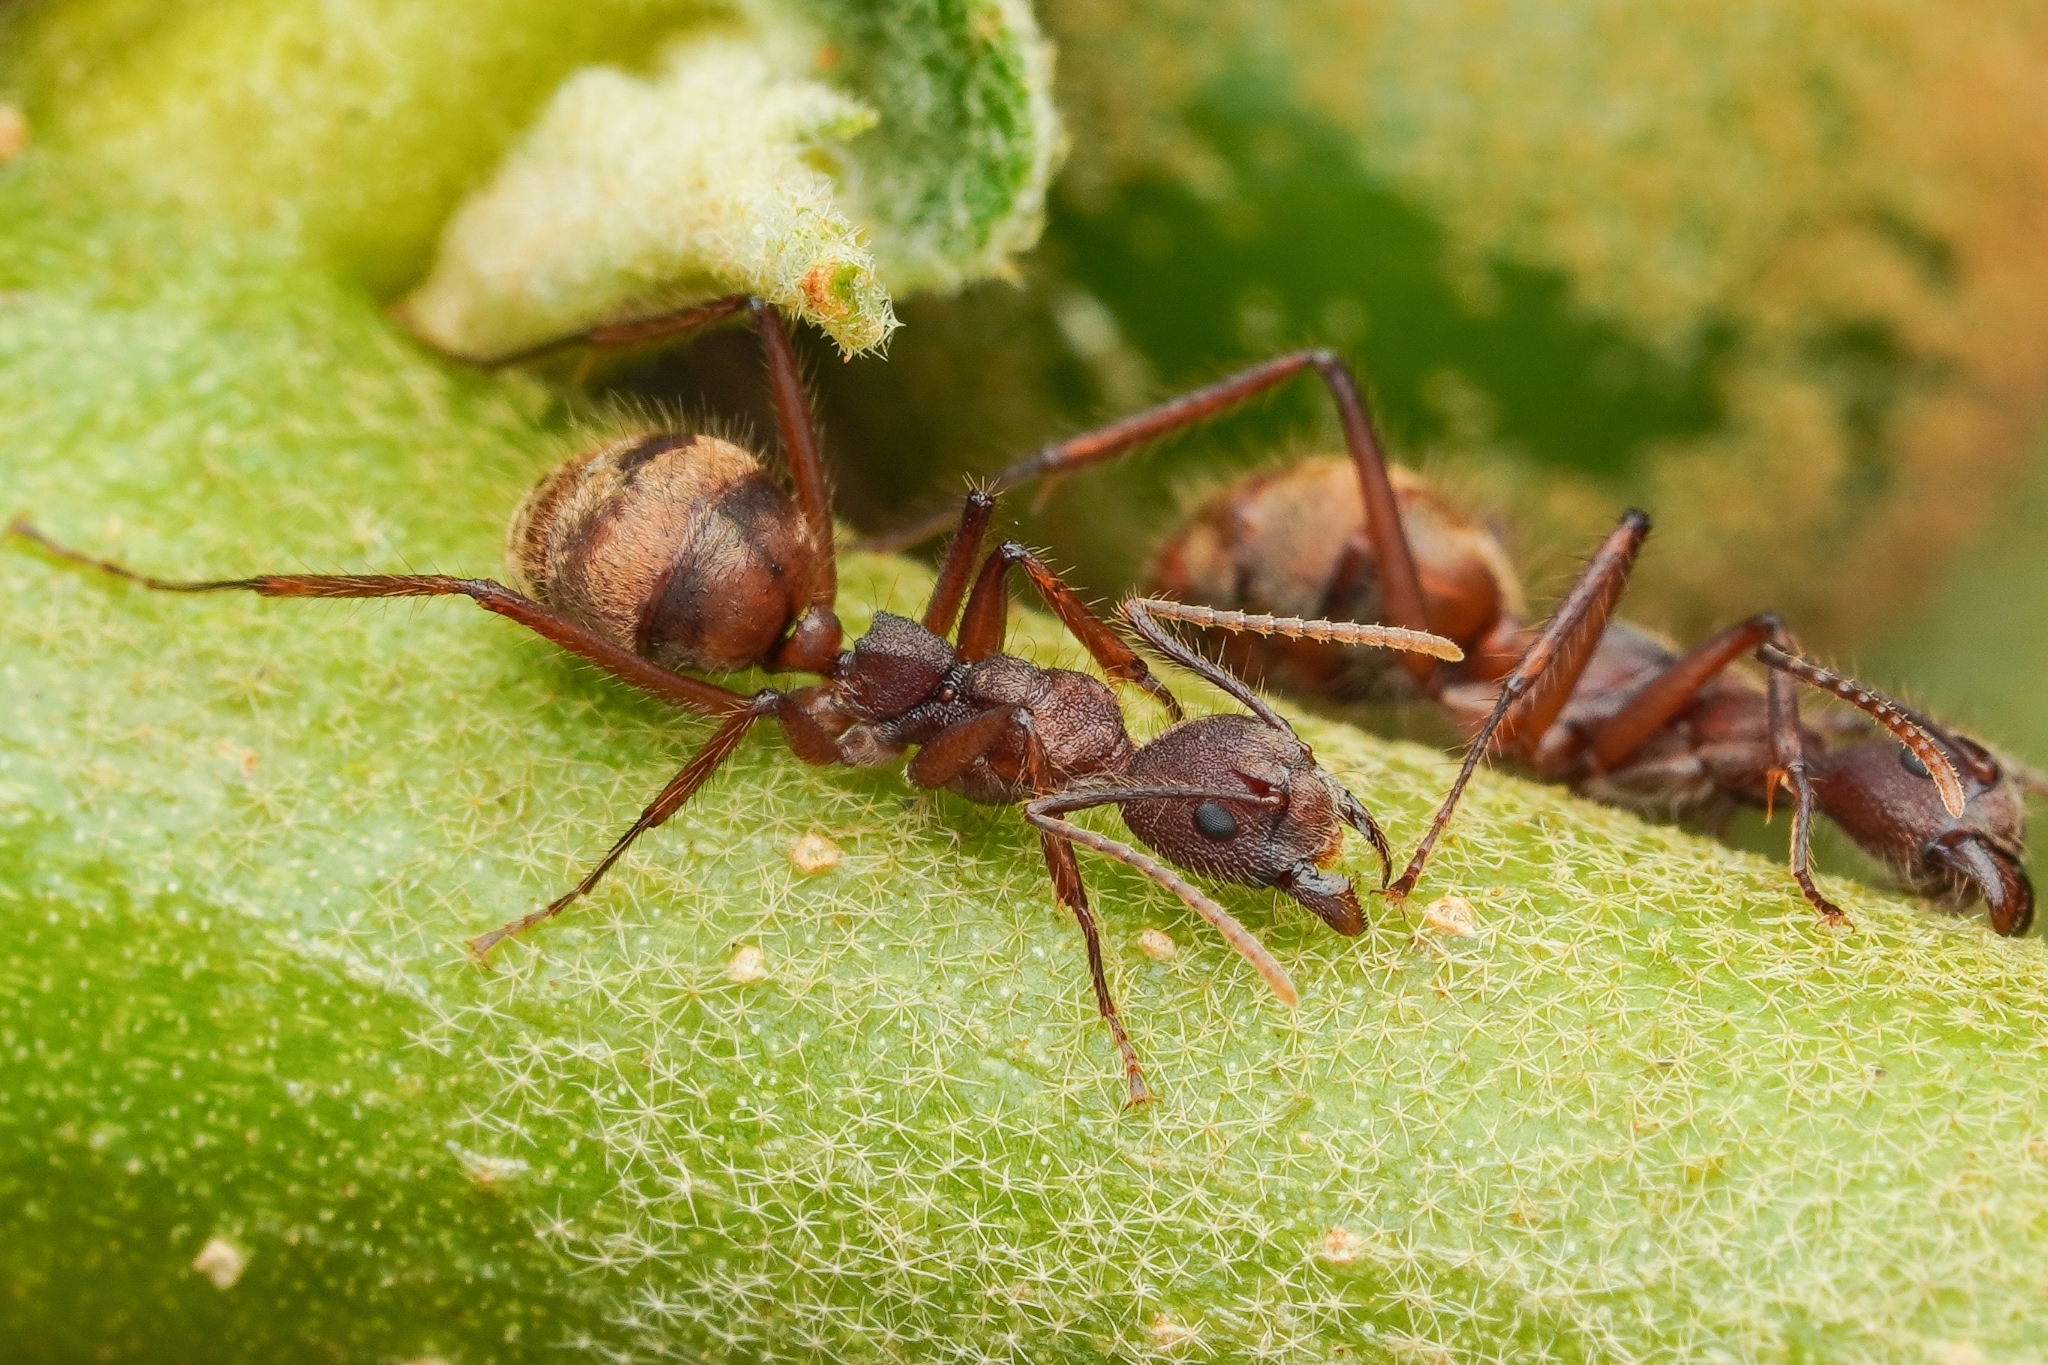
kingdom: Animalia
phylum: Arthropoda
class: Insecta
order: Hymenoptera
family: Formicidae
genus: Dolichoderus
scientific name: Dolichoderus bidens
